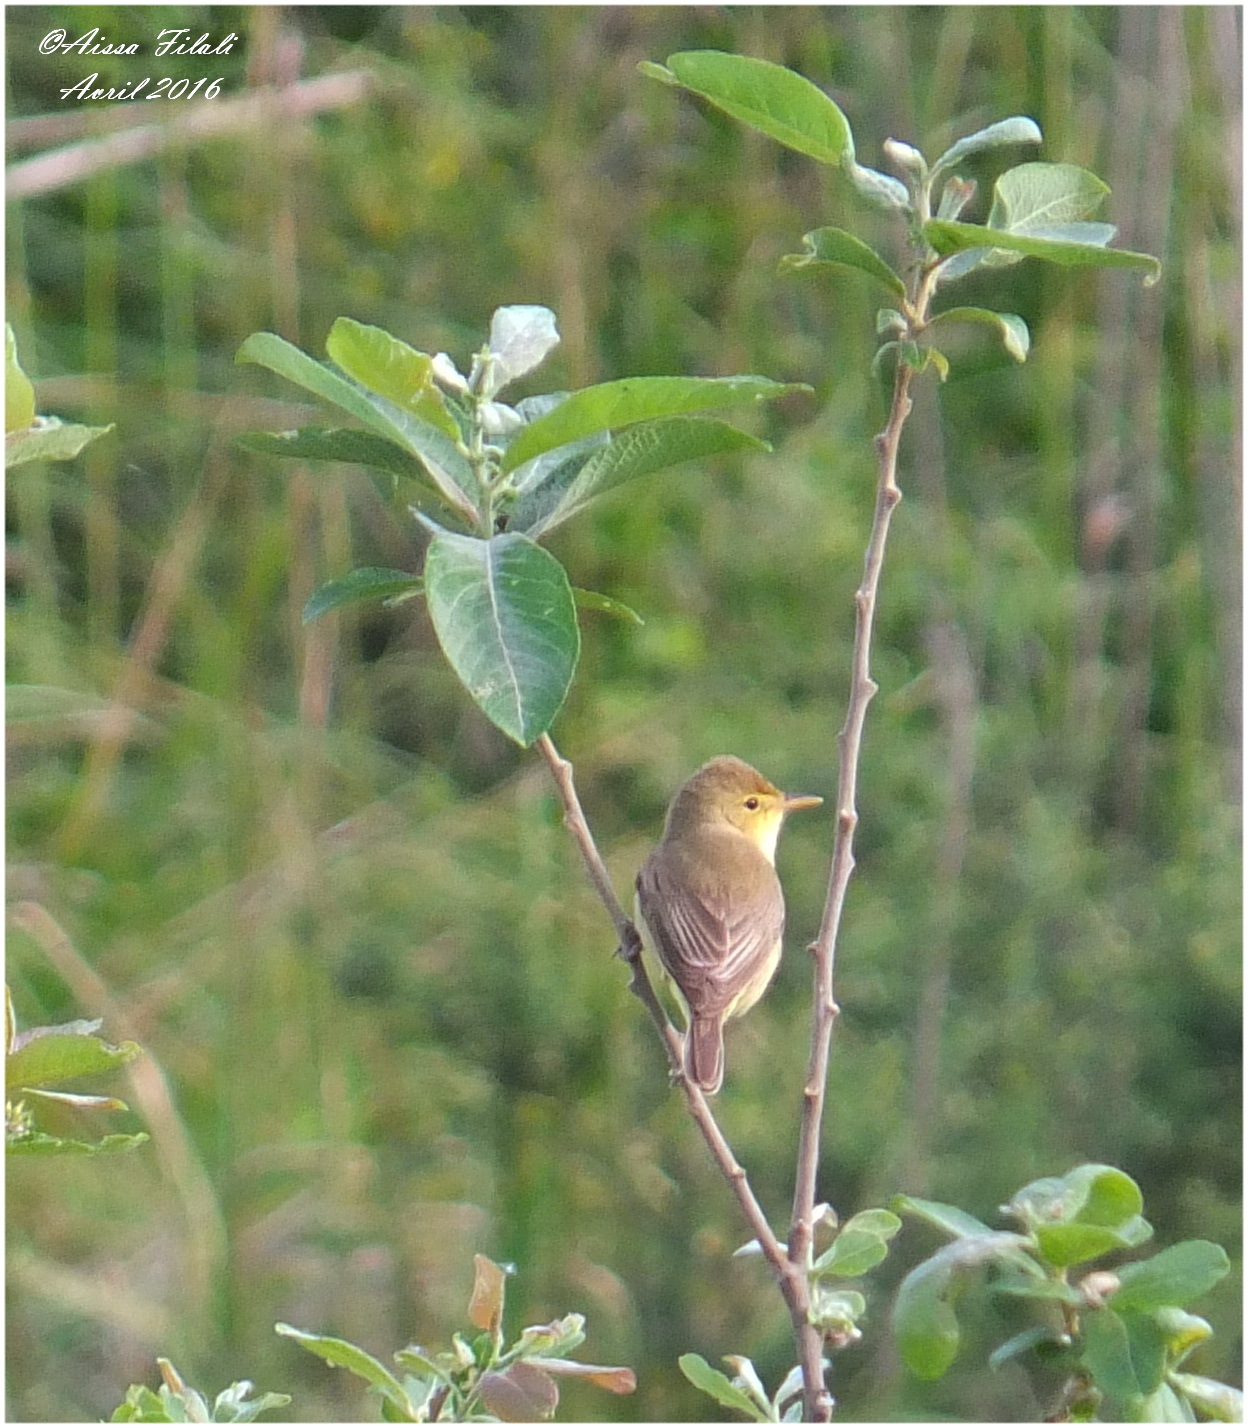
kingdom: Animalia
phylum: Chordata
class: Aves
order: Passeriformes
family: Acrocephalidae
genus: Hippolais
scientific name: Hippolais polyglotta
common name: Melodious warbler
